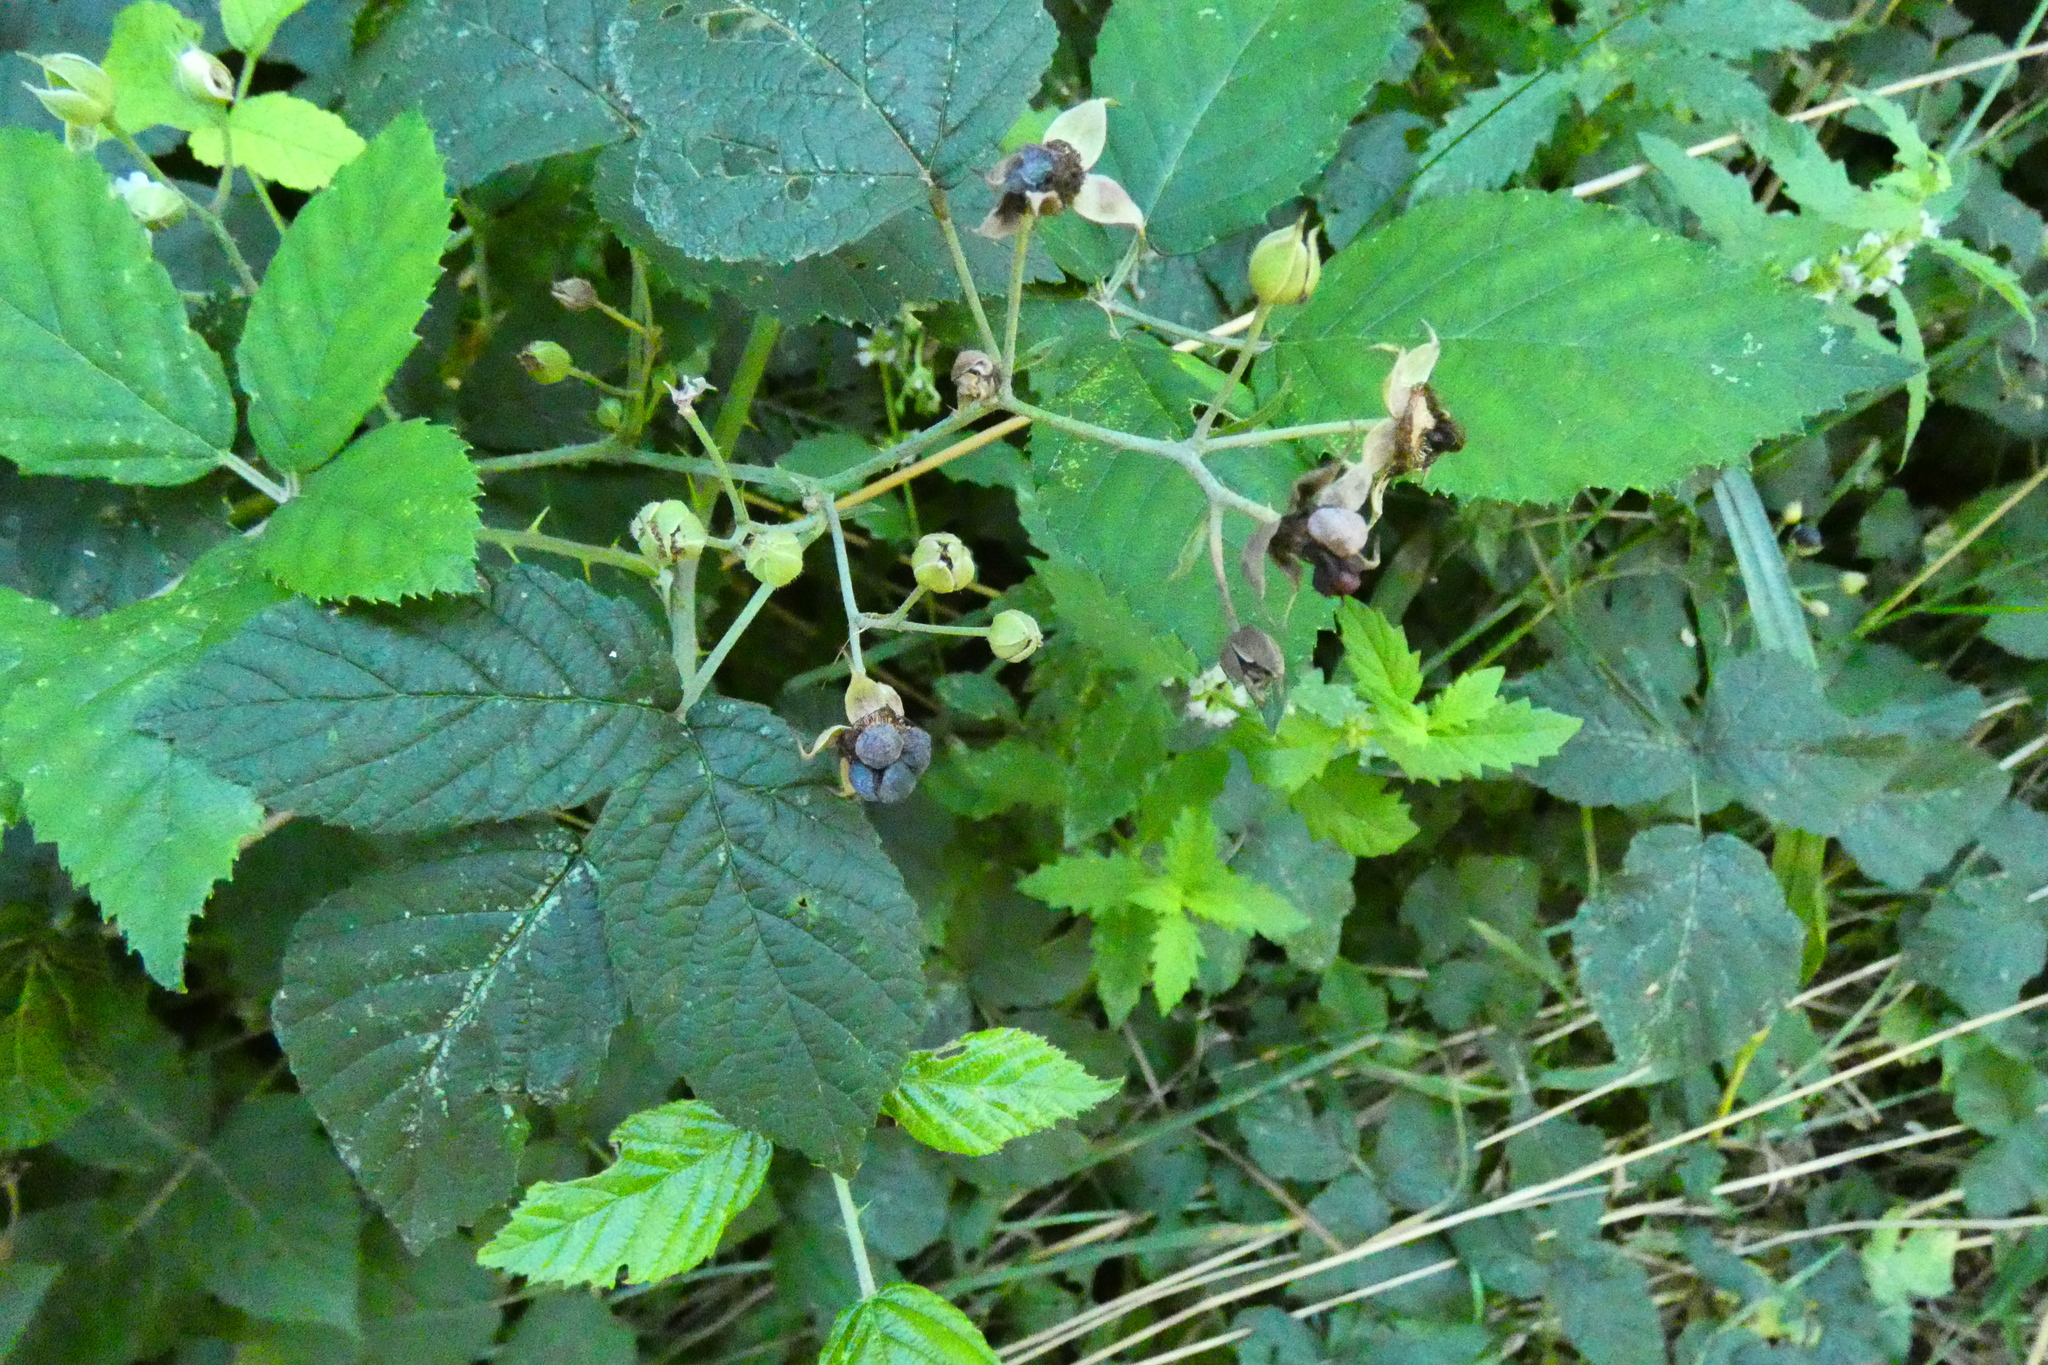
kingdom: Plantae
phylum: Tracheophyta
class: Magnoliopsida
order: Rosales
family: Rosaceae
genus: Rubus
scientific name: Rubus caesius
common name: Dewberry
